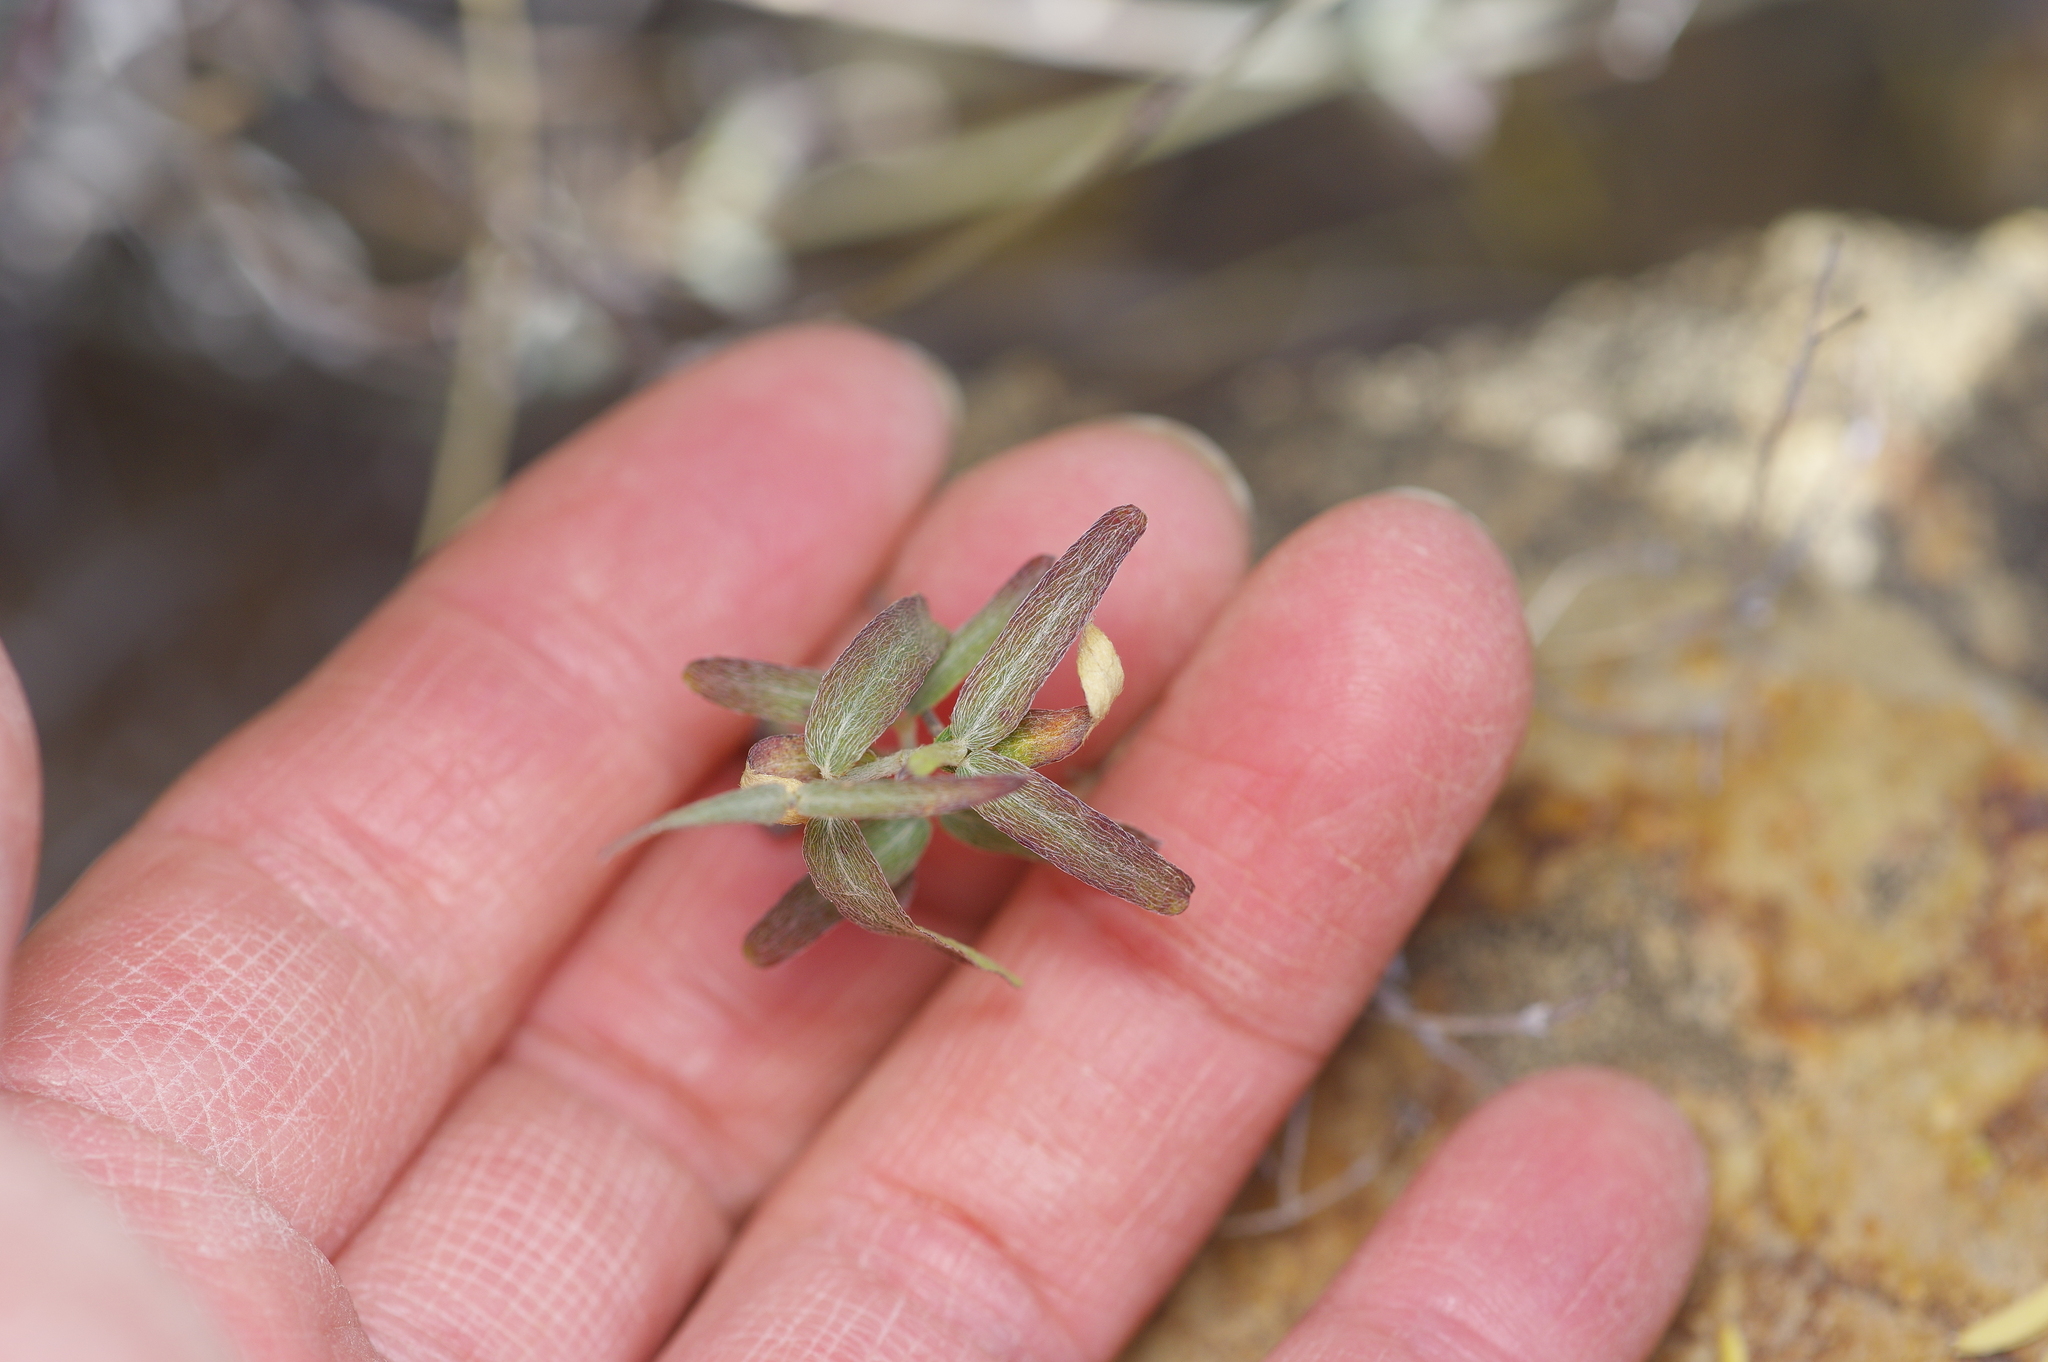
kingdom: Plantae
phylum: Tracheophyta
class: Magnoliopsida
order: Malpighiales
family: Malpighiaceae
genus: Cottsia
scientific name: Cottsia gracilis
